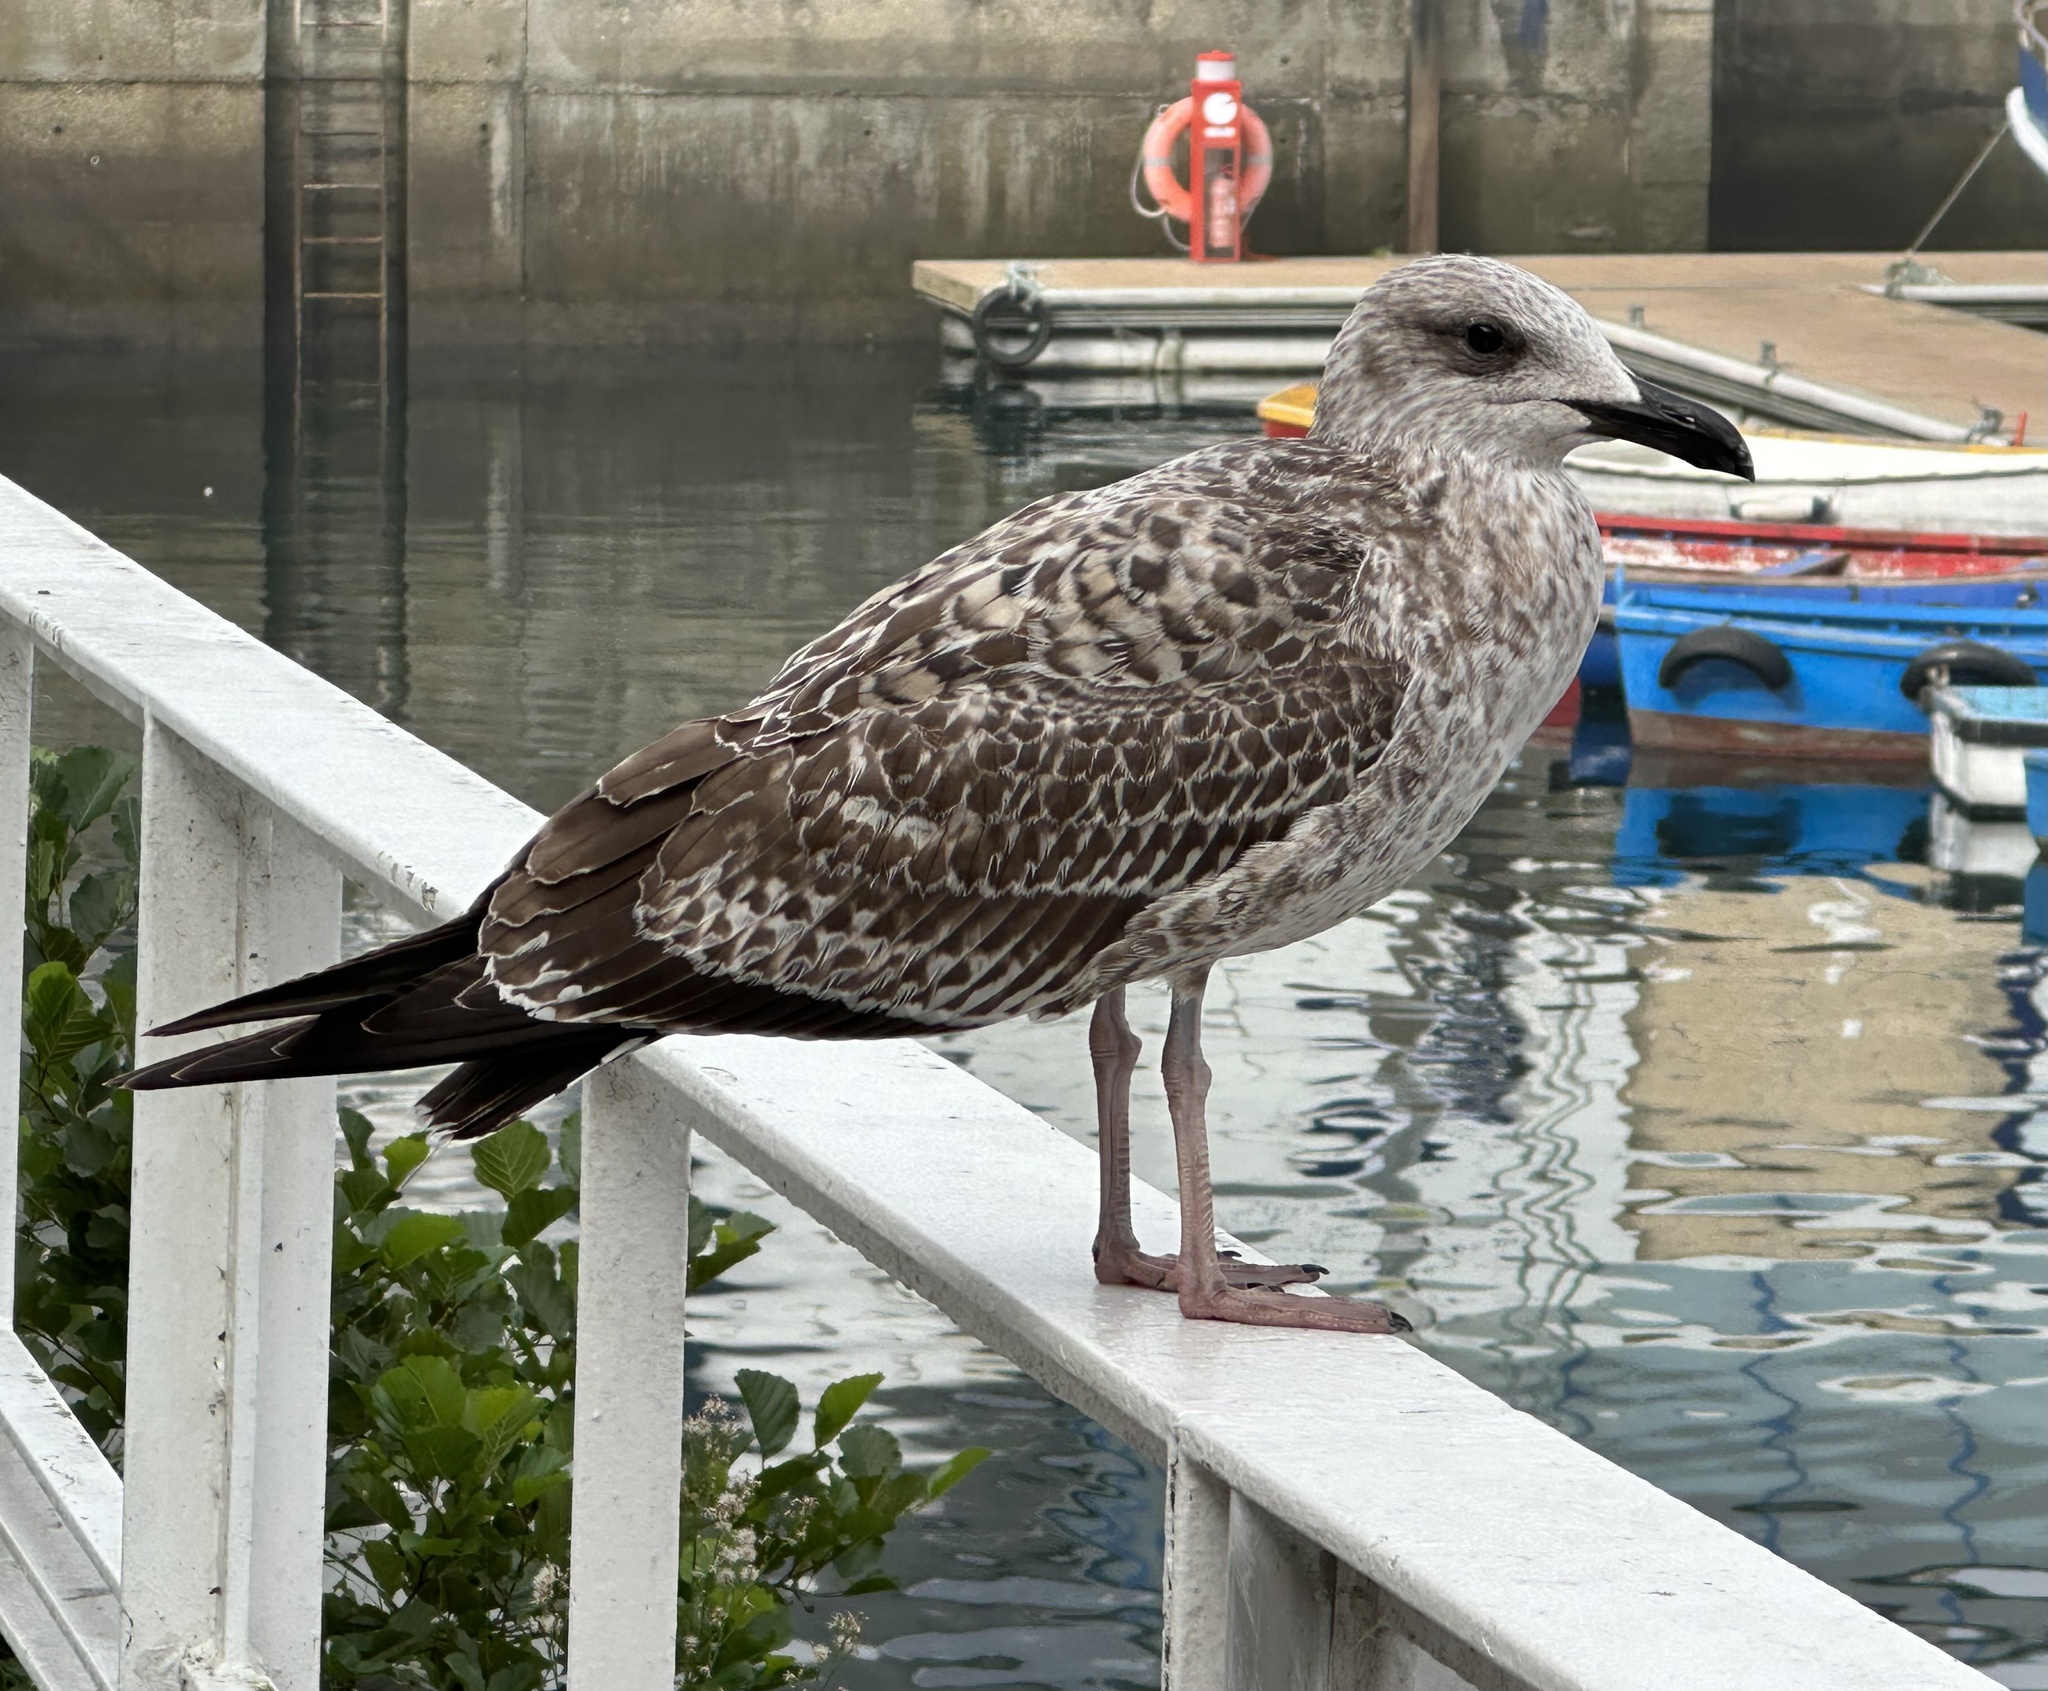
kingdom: Animalia
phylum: Chordata
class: Aves
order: Charadriiformes
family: Laridae
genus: Larus
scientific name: Larus fuscus
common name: Lesser black-backed gull
